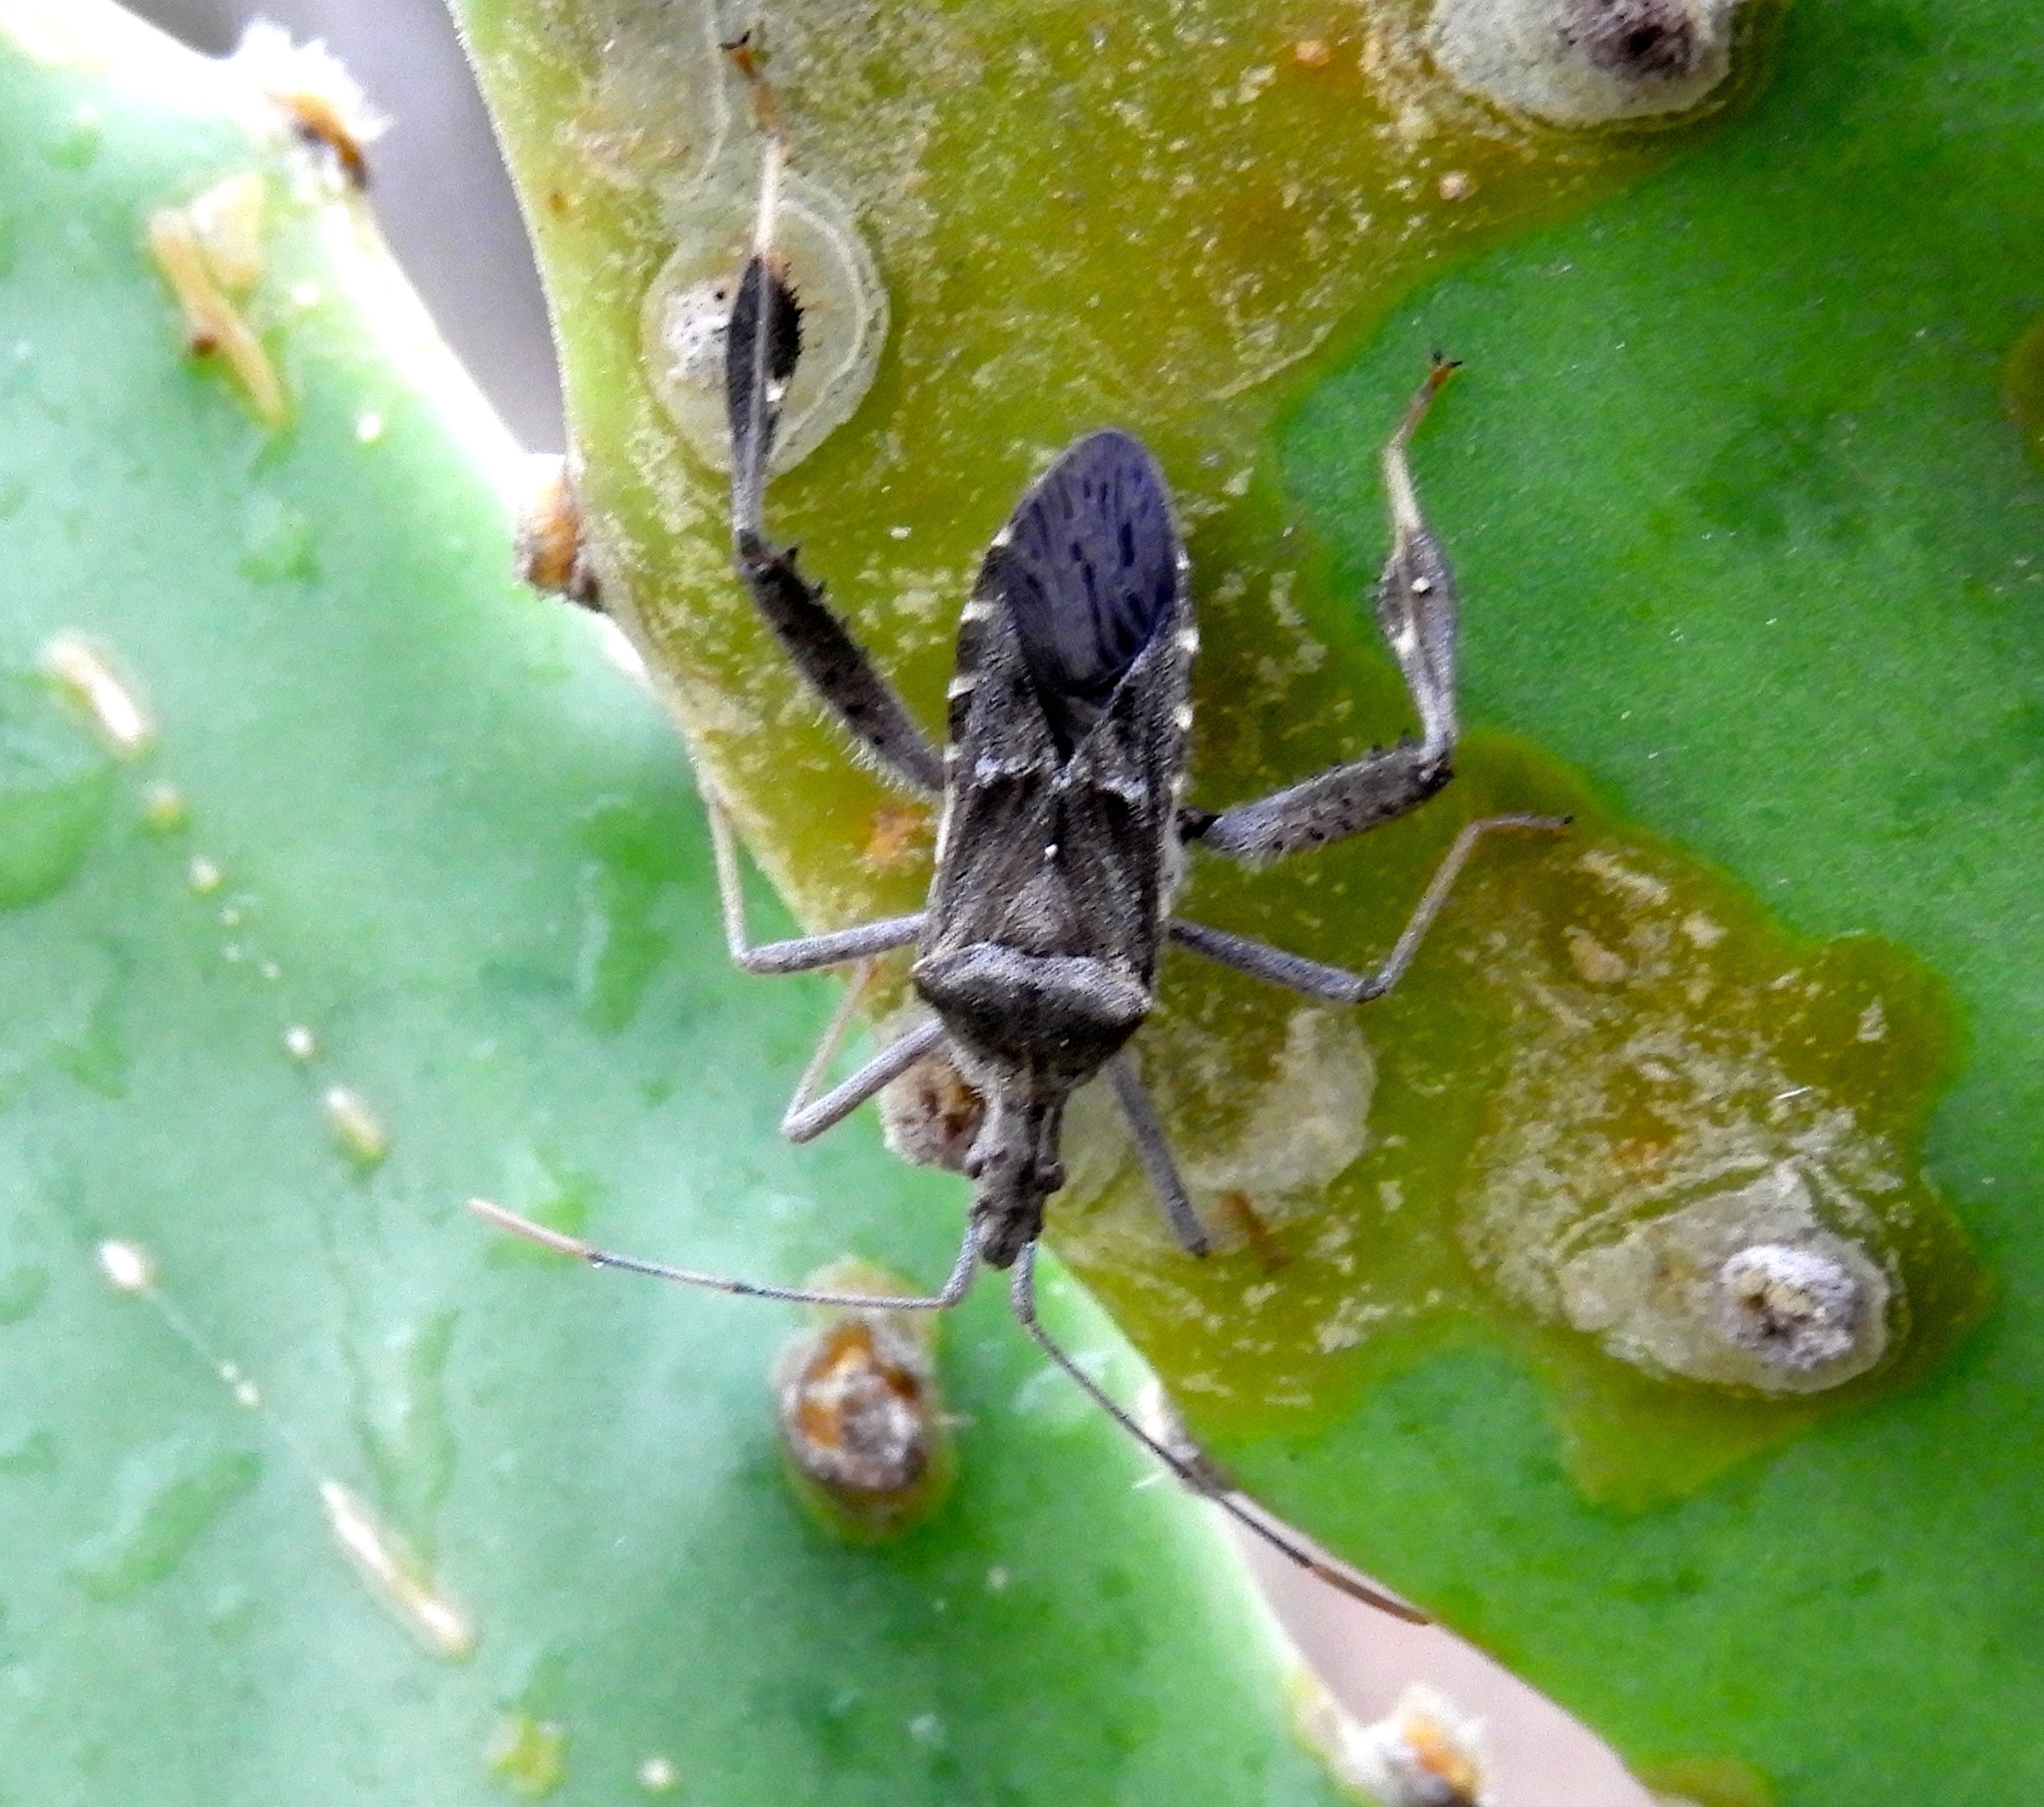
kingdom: Animalia
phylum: Arthropoda
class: Insecta
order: Hemiptera
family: Coreidae
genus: Narnia
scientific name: Narnia femorata
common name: Leaf-footed cactus bug
